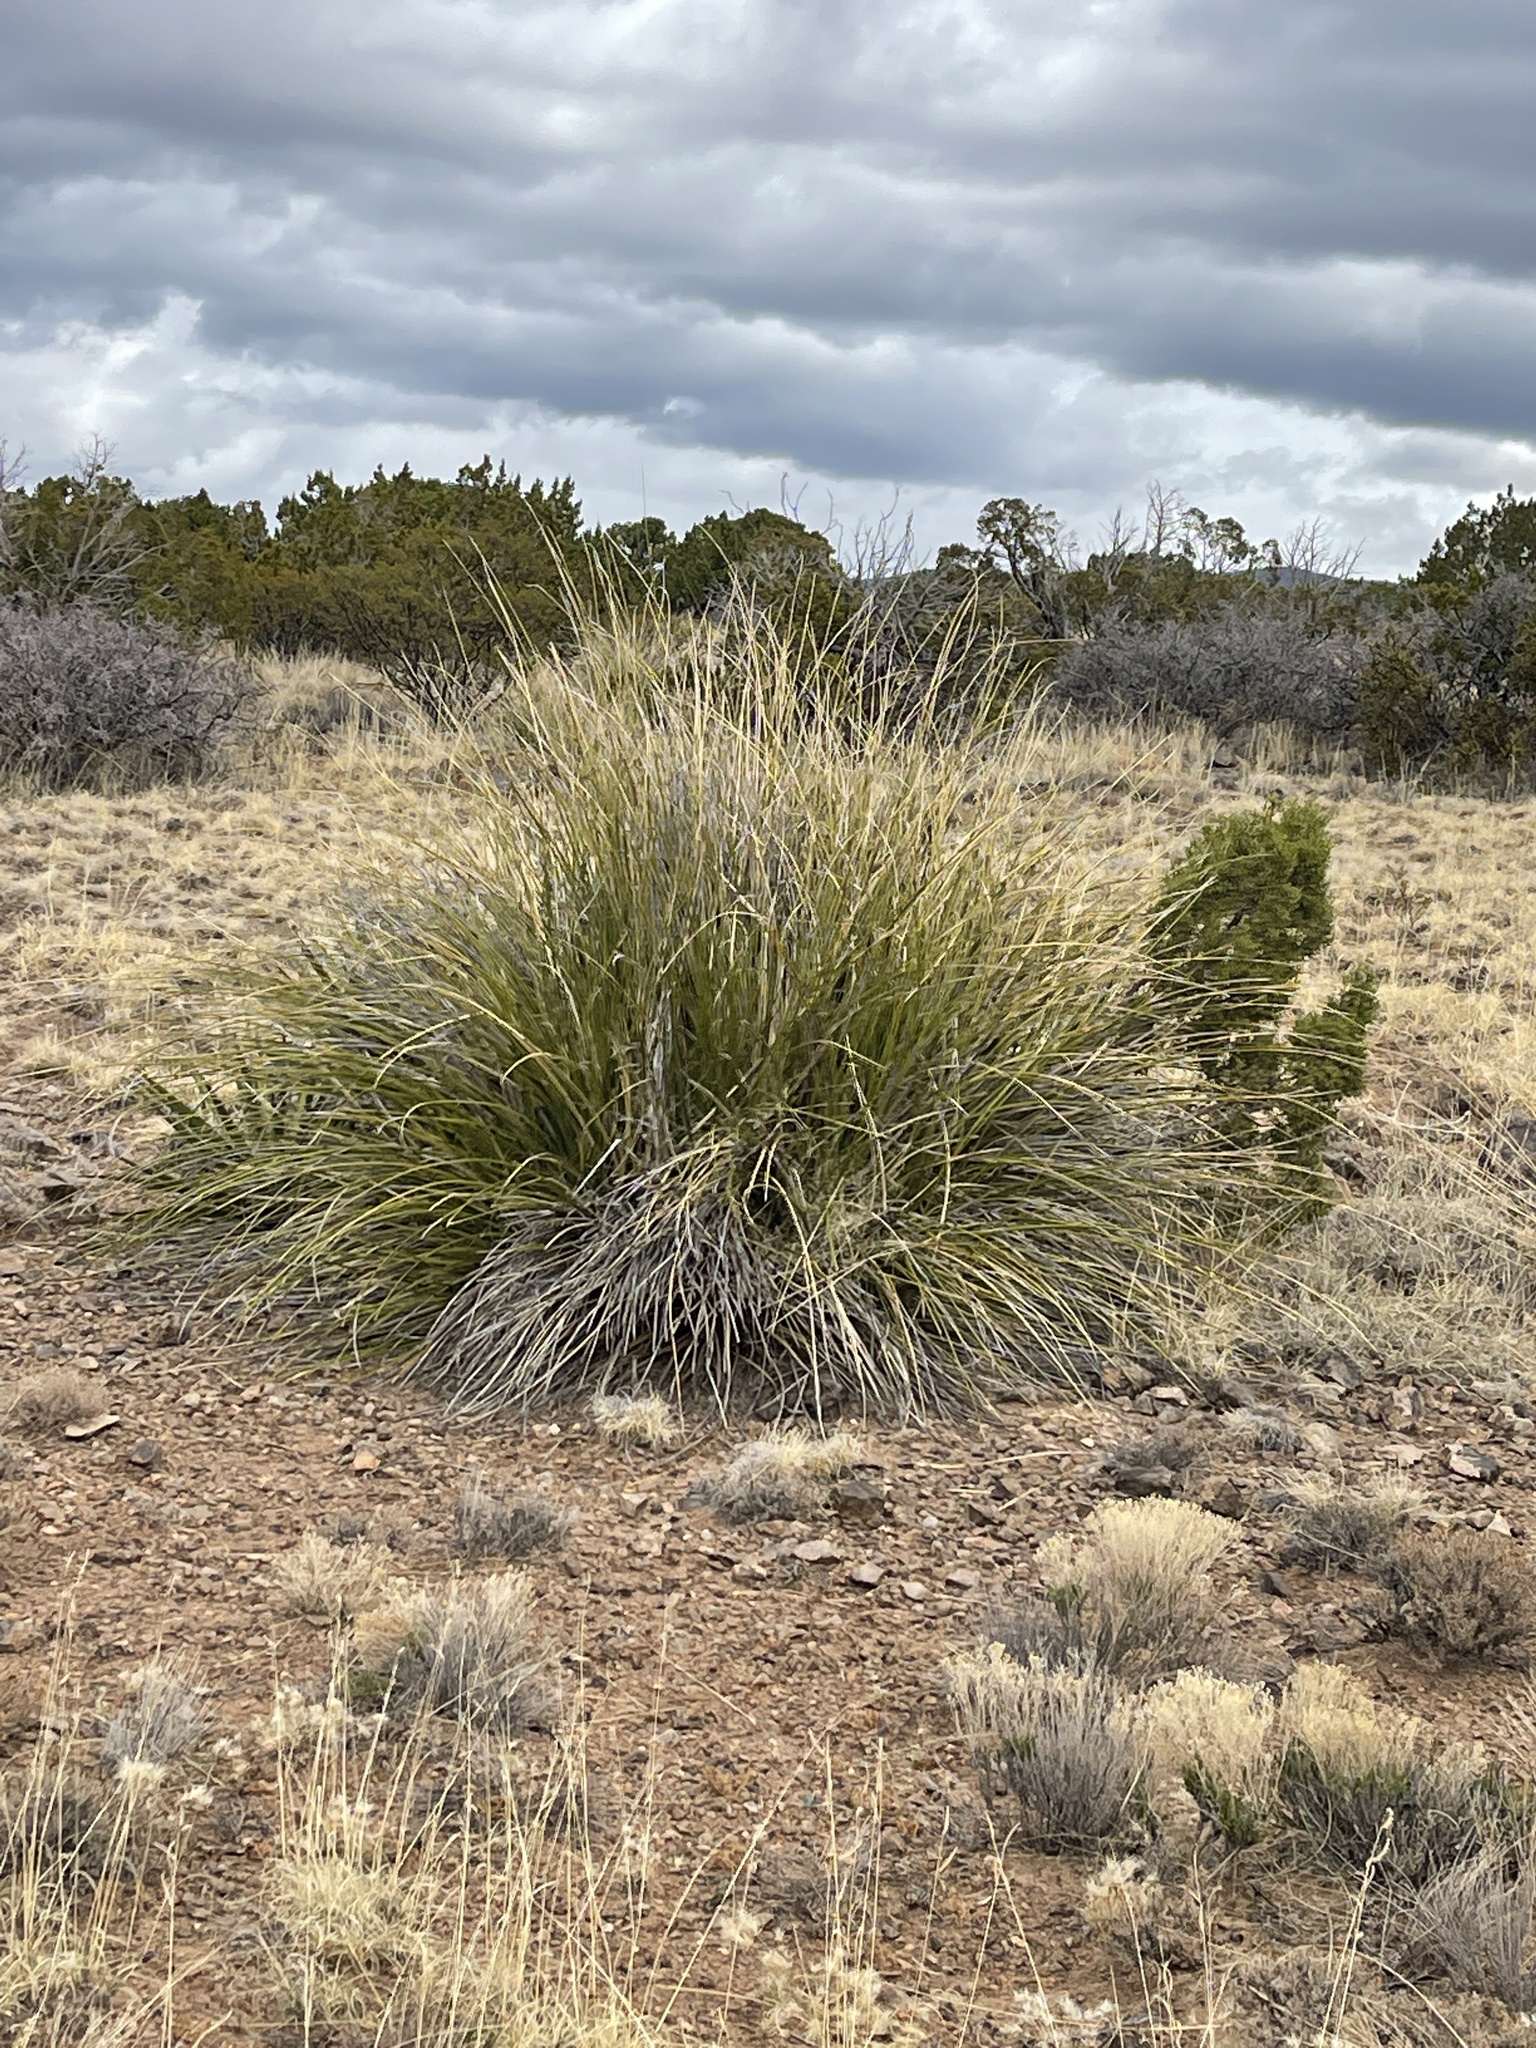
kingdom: Plantae
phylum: Tracheophyta
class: Liliopsida
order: Asparagales
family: Asparagaceae
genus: Nolina
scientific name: Nolina texana
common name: Texas sacahuiste
